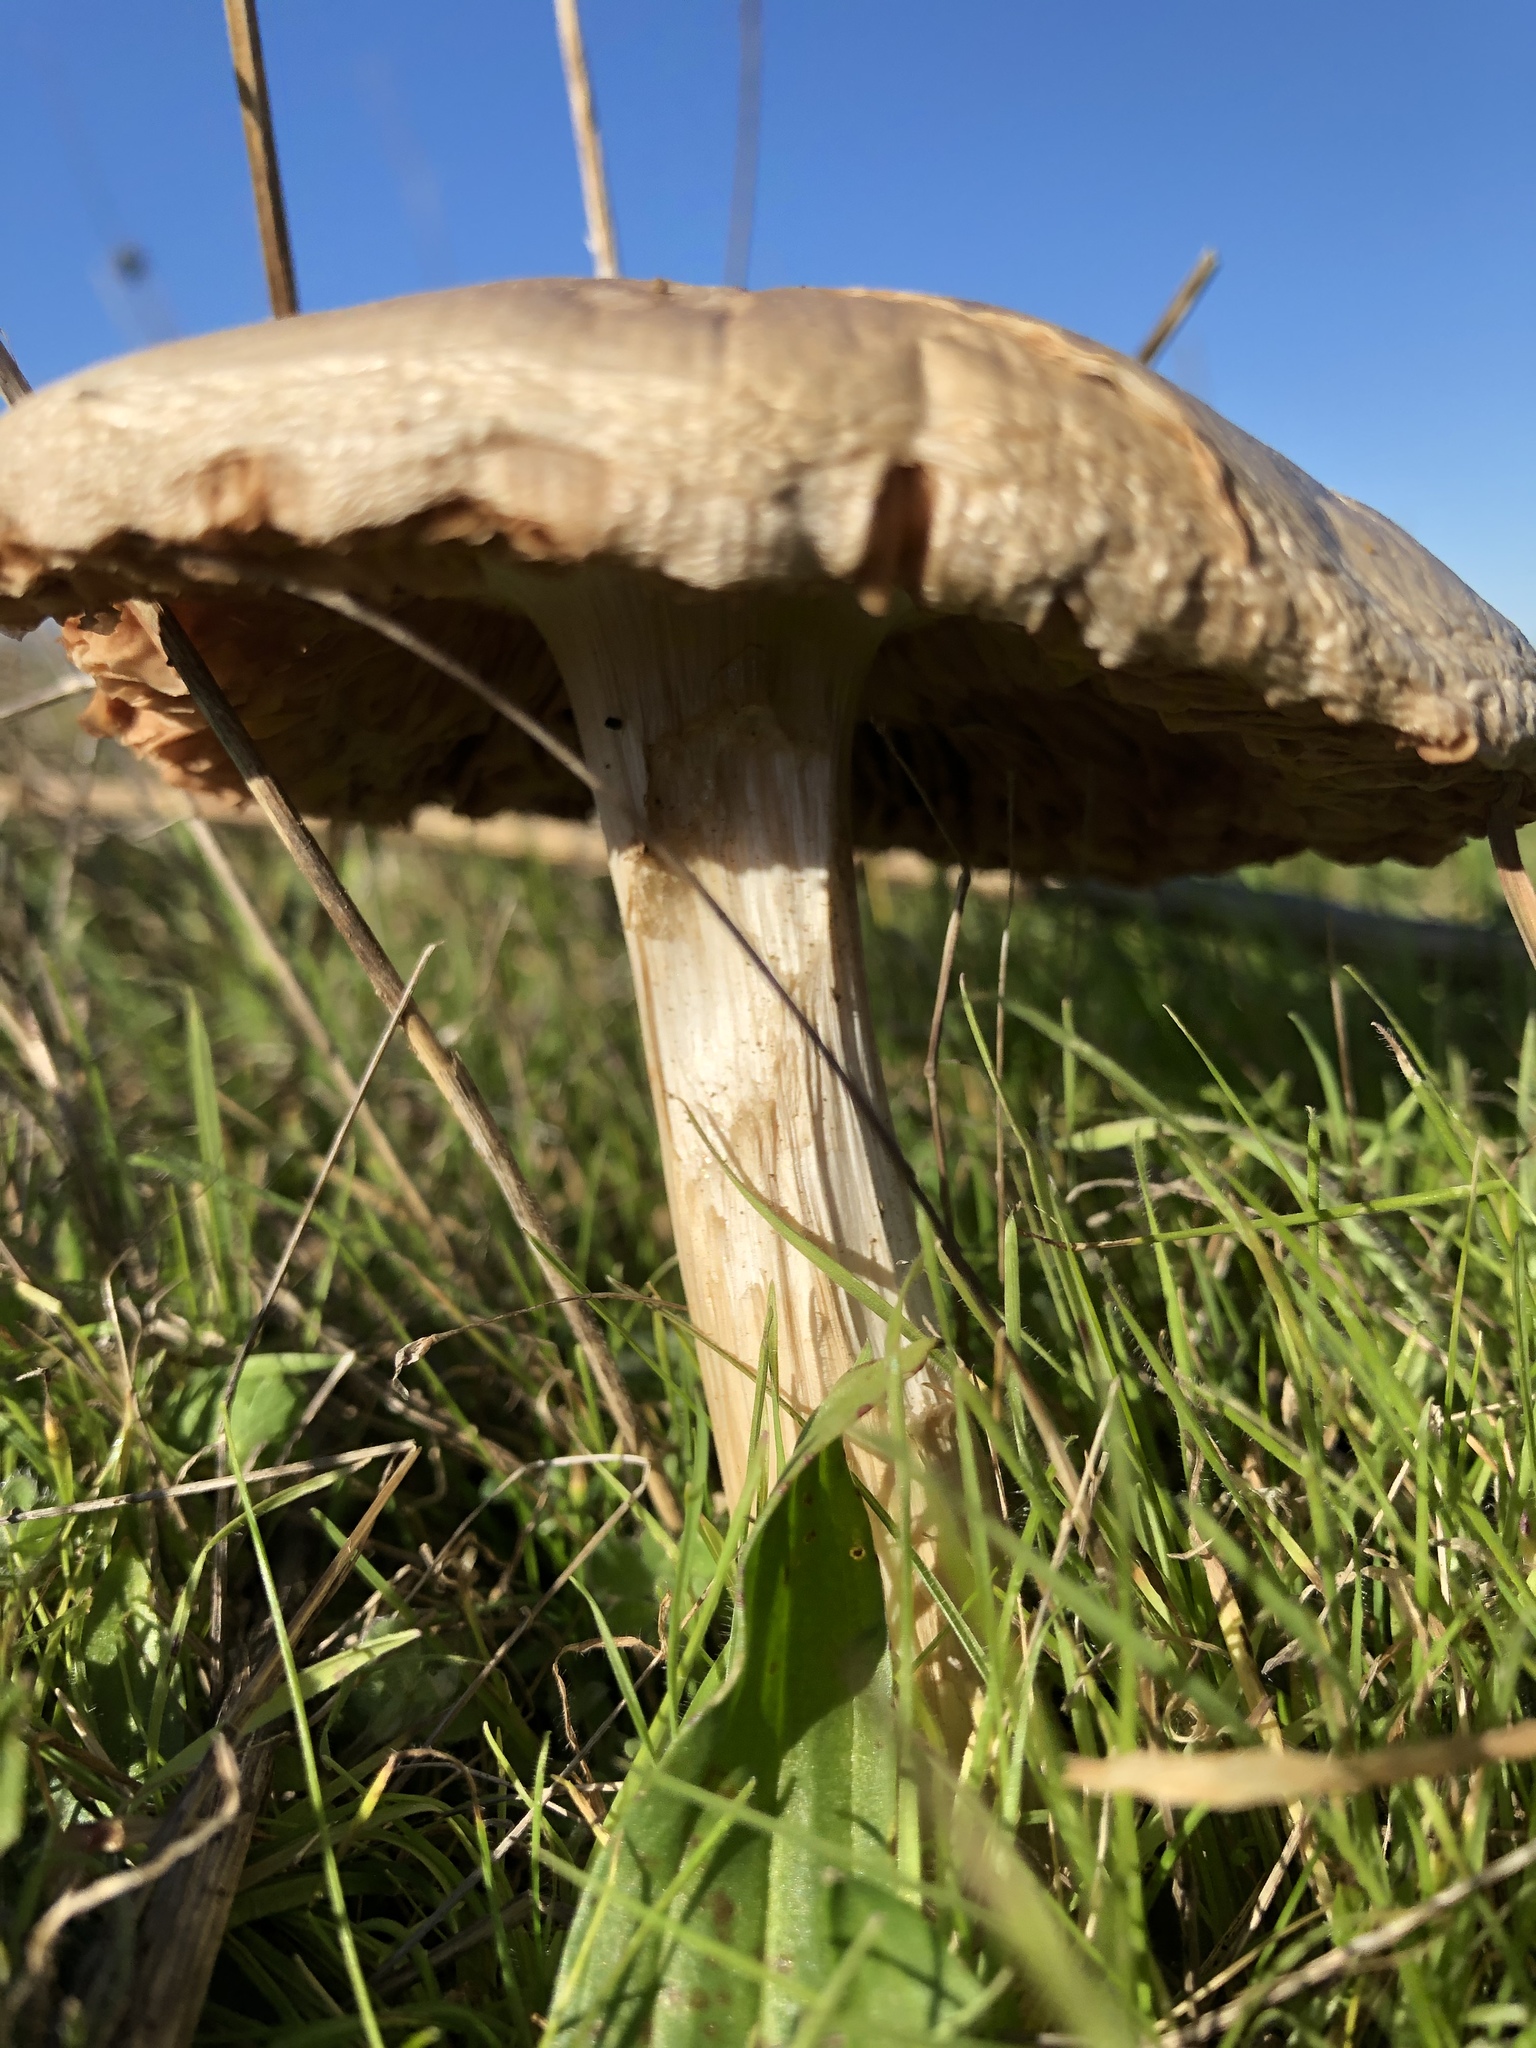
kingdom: Fungi
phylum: Basidiomycota
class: Agaricomycetes
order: Agaricales
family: Pluteaceae
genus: Volvopluteus
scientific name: Volvopluteus gloiocephalus
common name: Stubble rosegill
